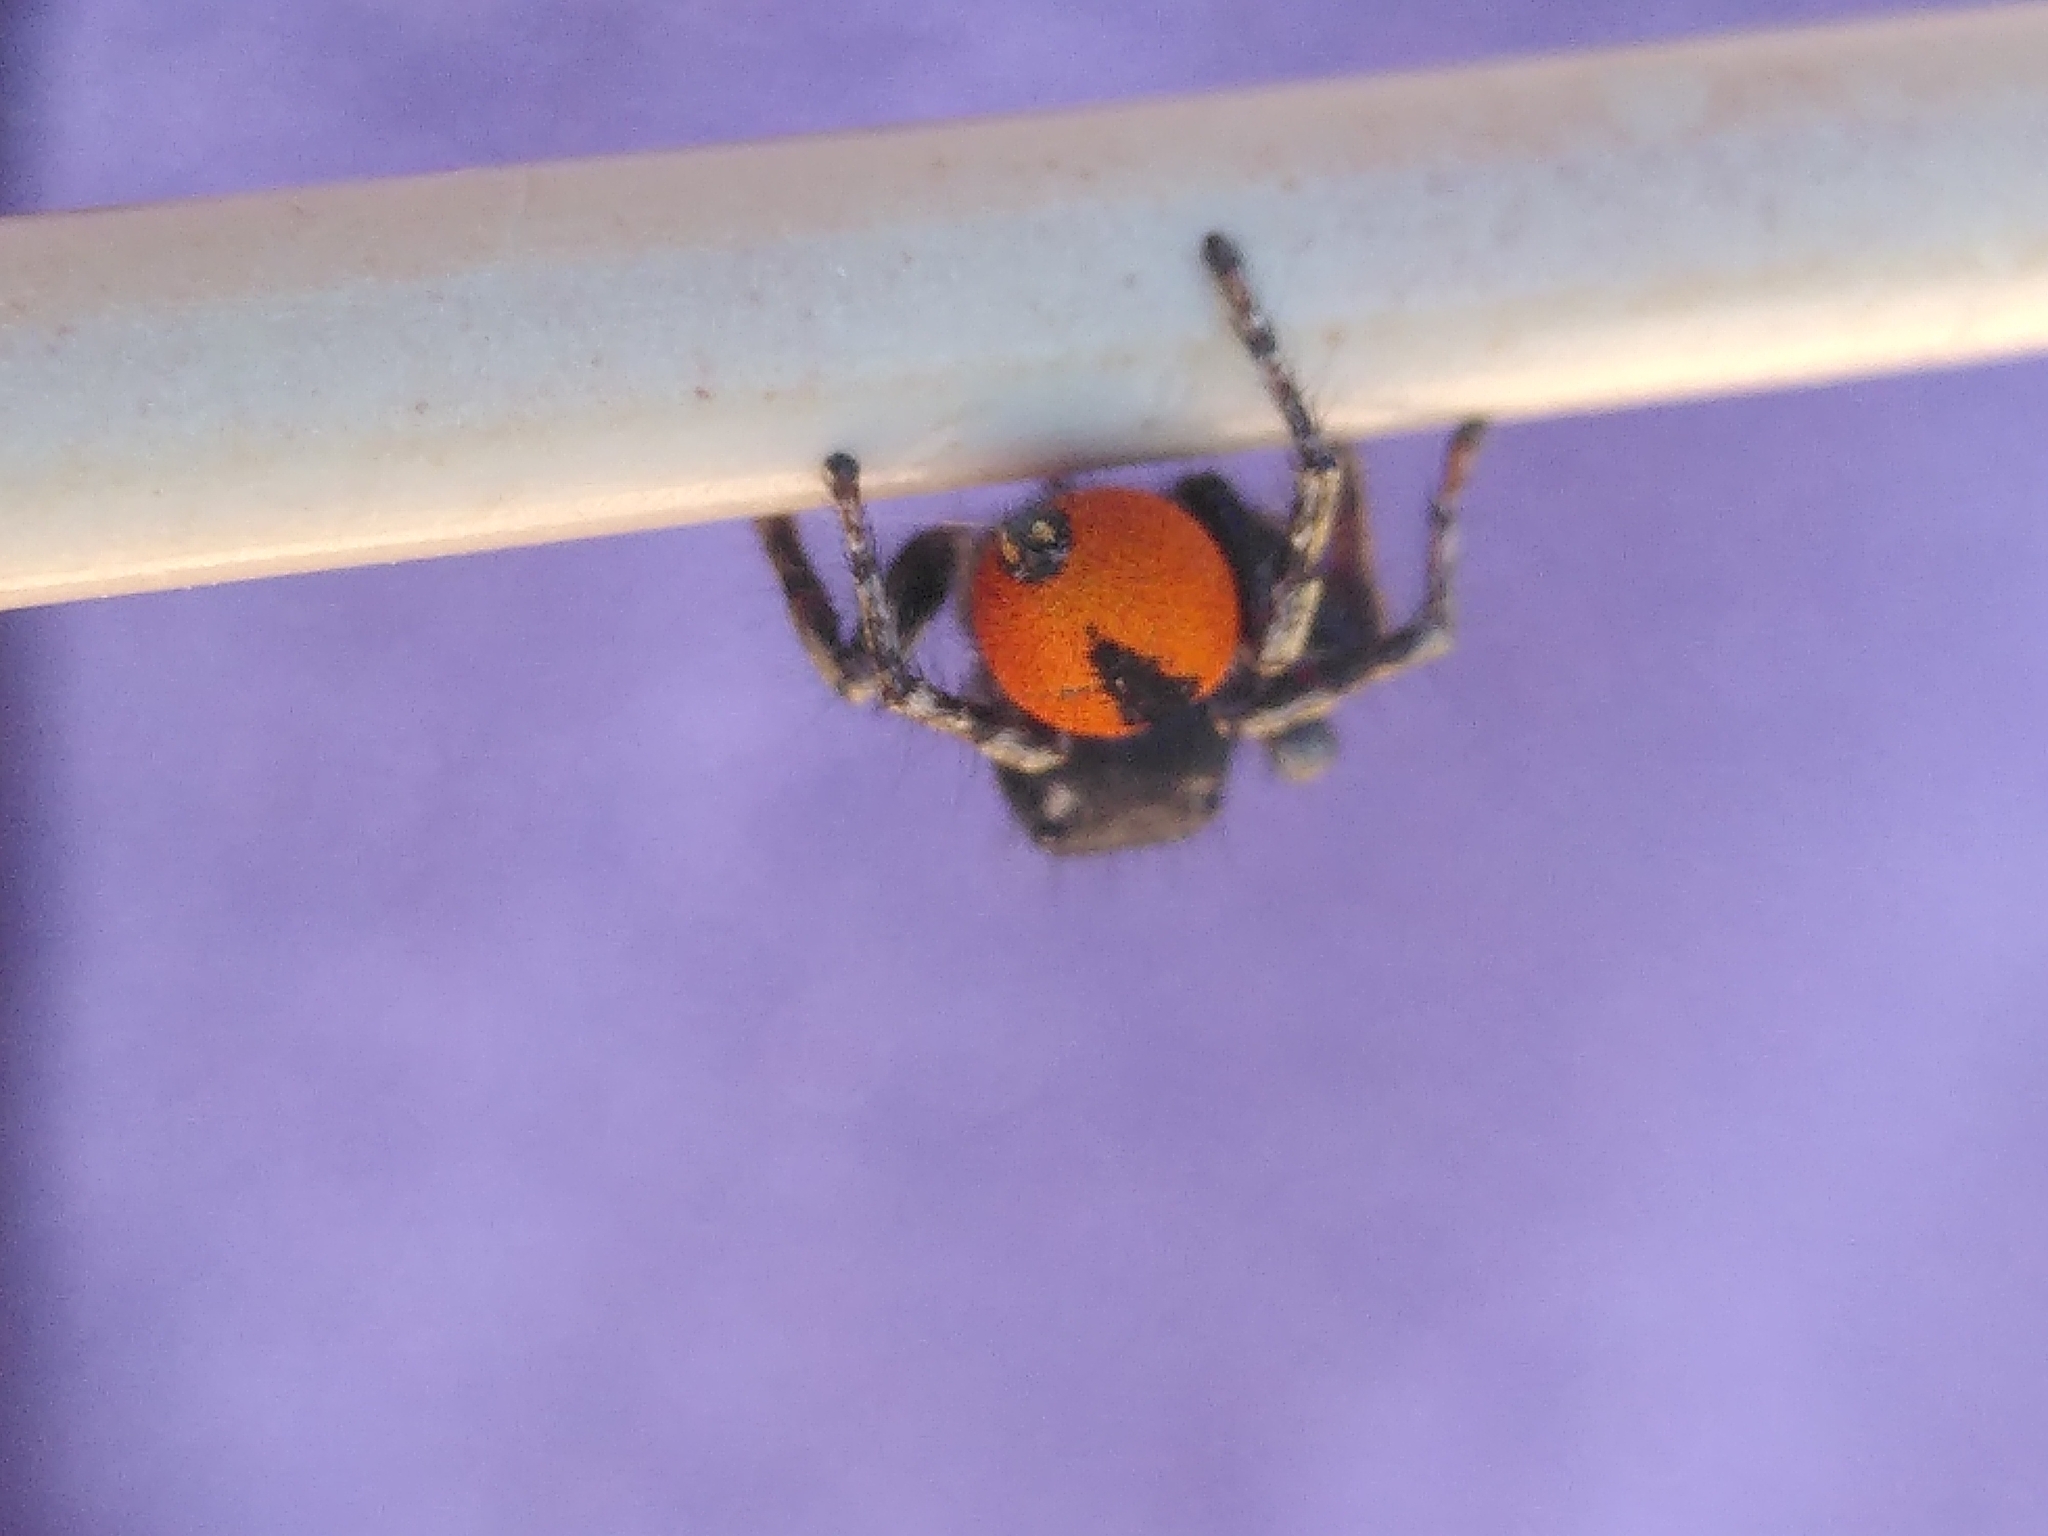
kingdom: Animalia
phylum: Arthropoda
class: Arachnida
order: Araneae
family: Salticidae
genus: Philaeus
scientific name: Philaeus chrysops
